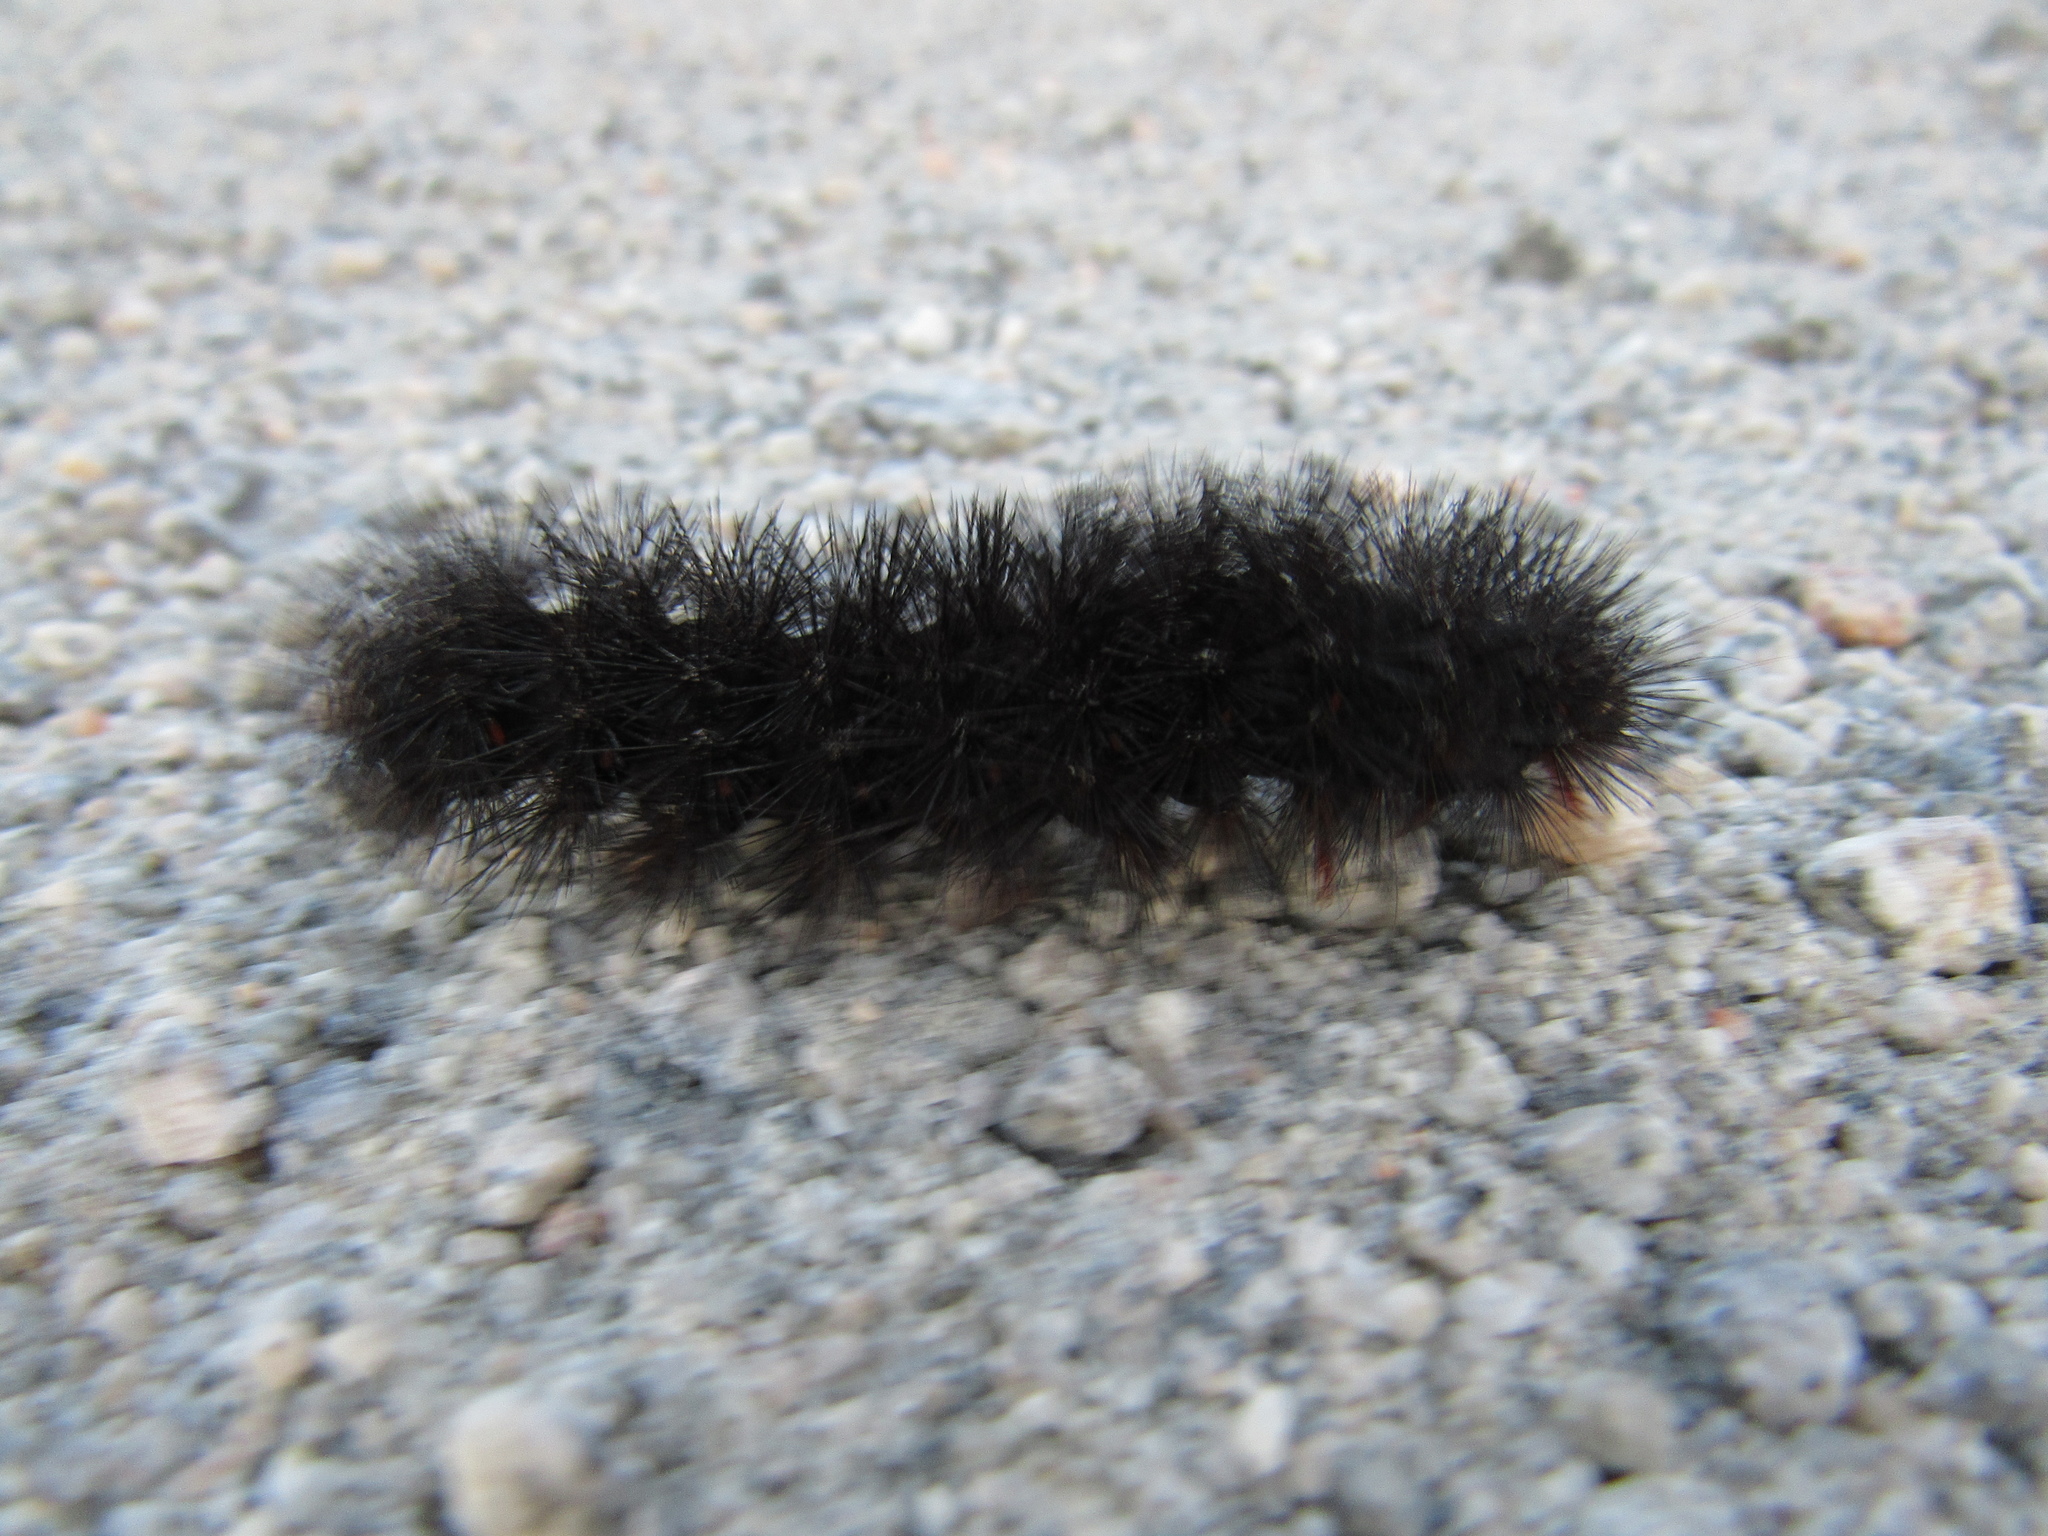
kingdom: Animalia
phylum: Arthropoda
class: Insecta
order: Lepidoptera
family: Erebidae
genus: Hypercompe
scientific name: Hypercompe scribonia
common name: Giant leopard moth
